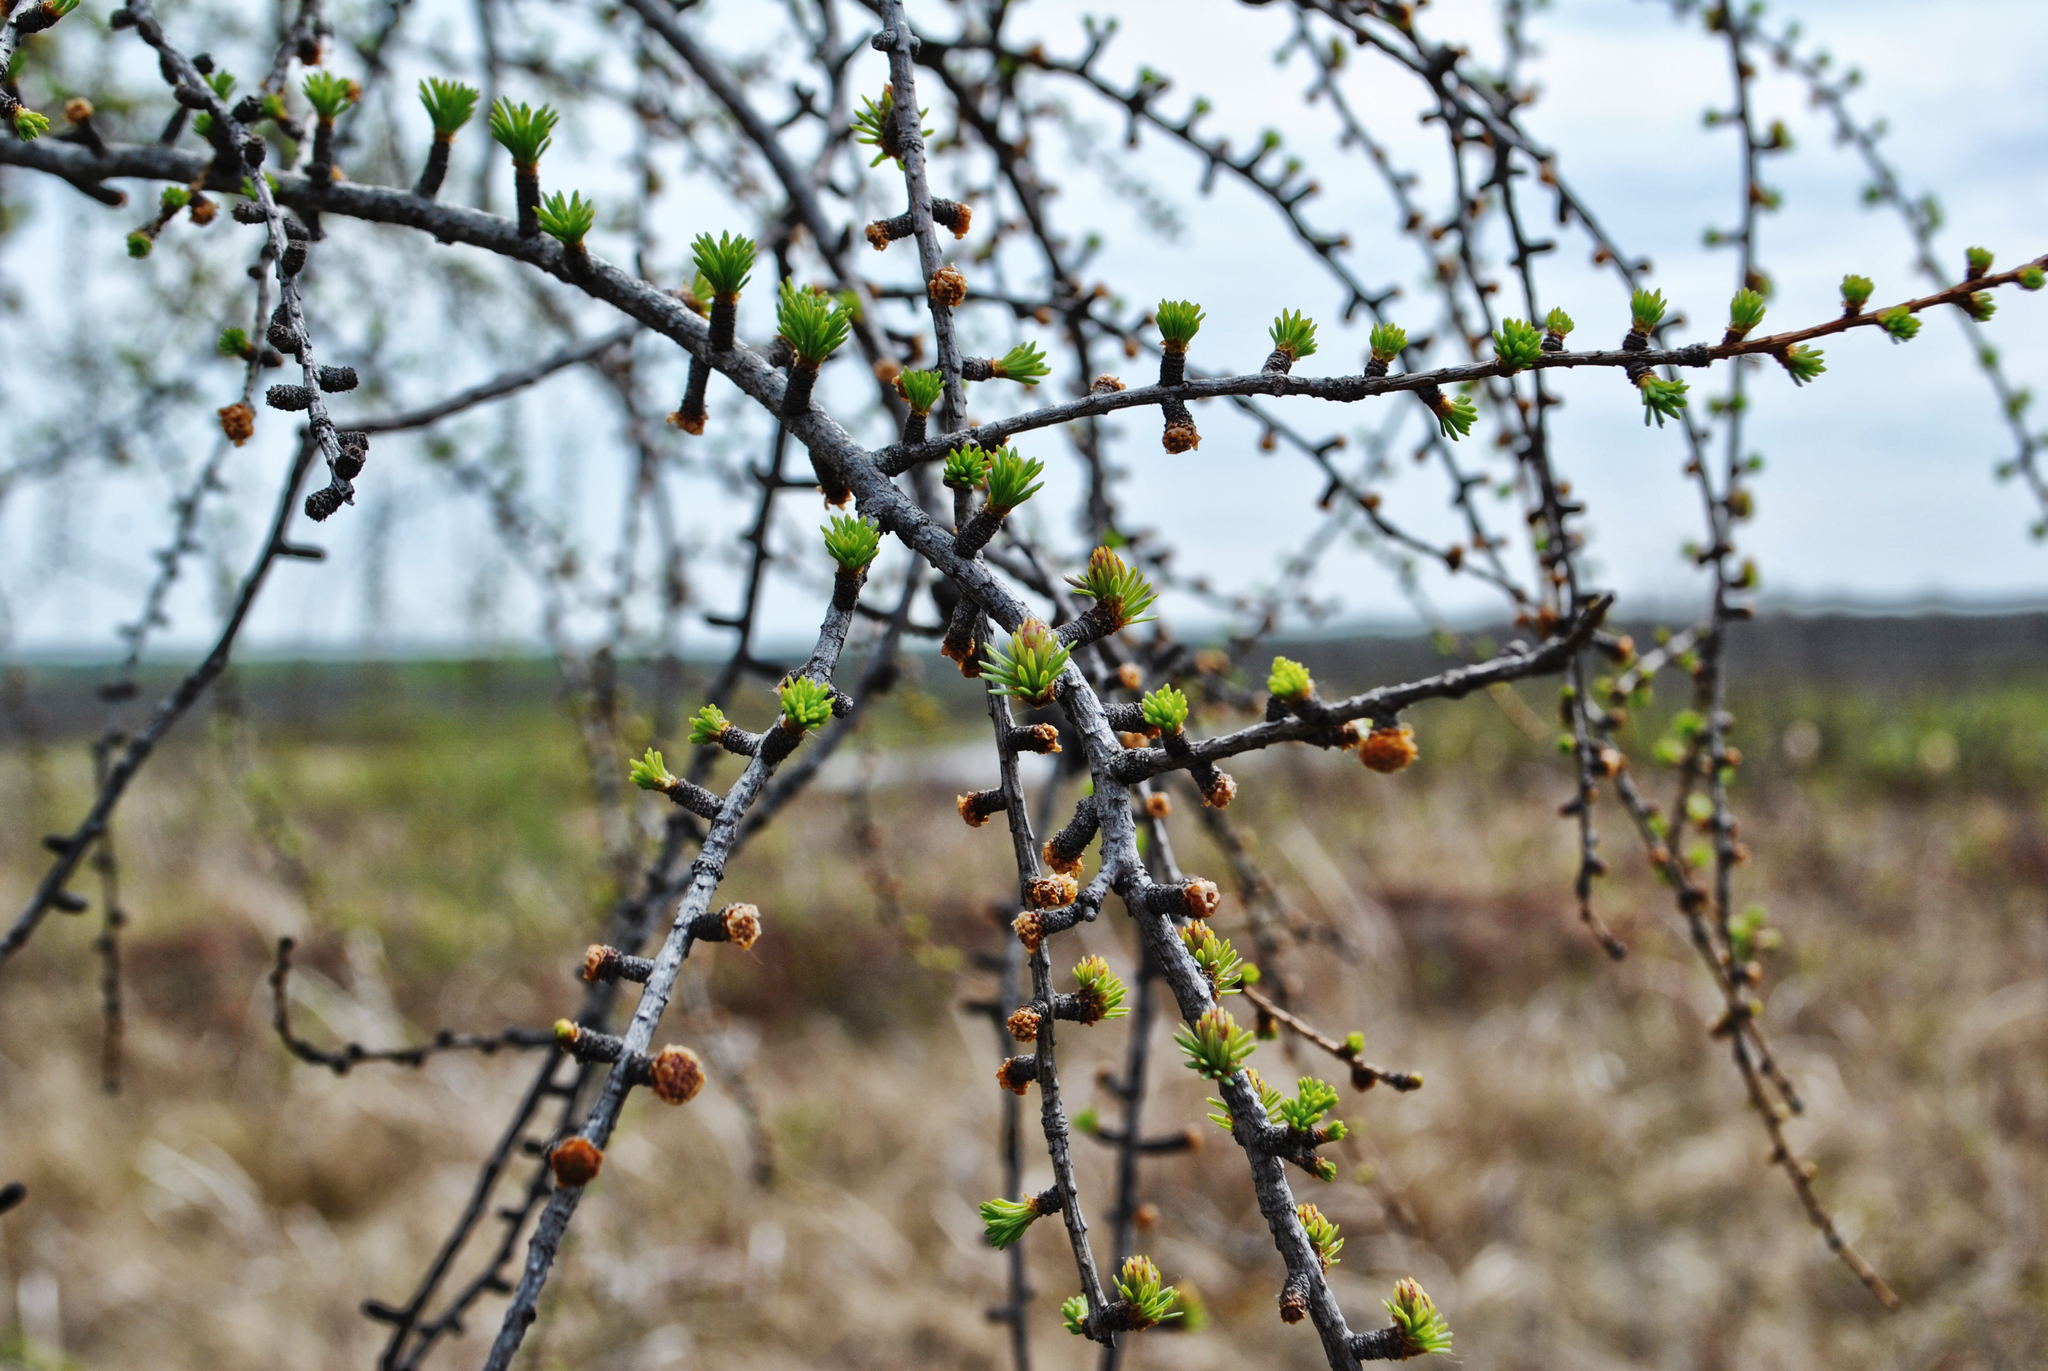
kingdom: Plantae
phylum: Tracheophyta
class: Pinopsida
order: Pinales
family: Pinaceae
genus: Larix
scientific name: Larix laricina
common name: American larch
